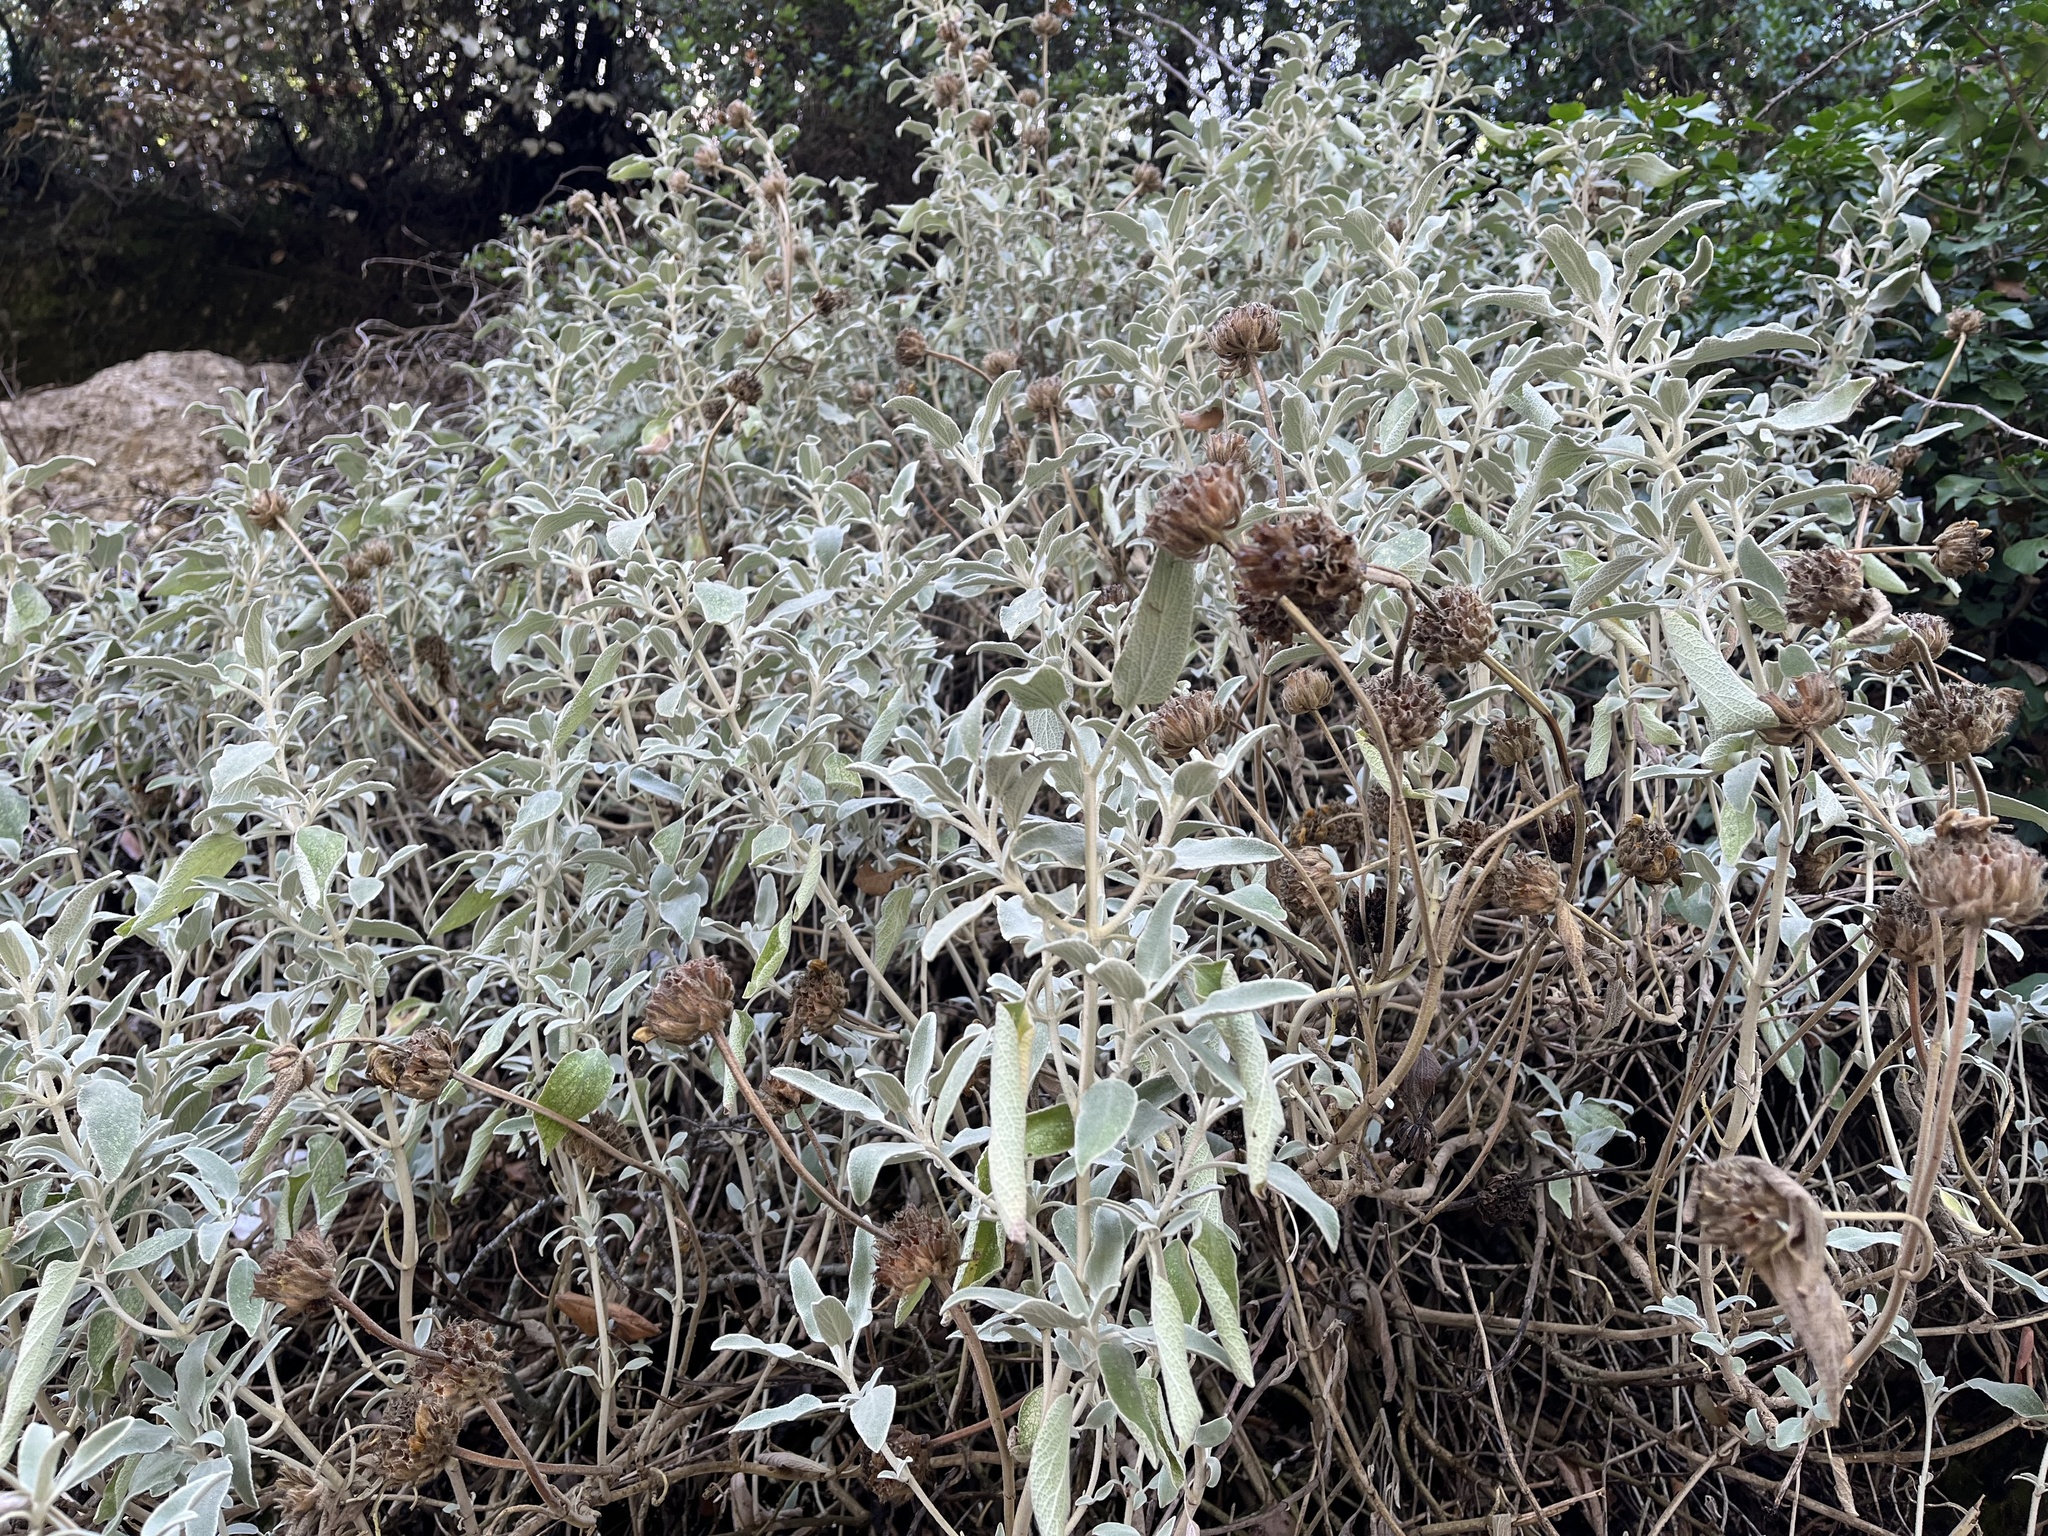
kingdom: Plantae
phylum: Tracheophyta
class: Magnoliopsida
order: Lamiales
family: Lamiaceae
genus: Phlomis
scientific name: Phlomis fruticosa
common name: Jerusalem sage
